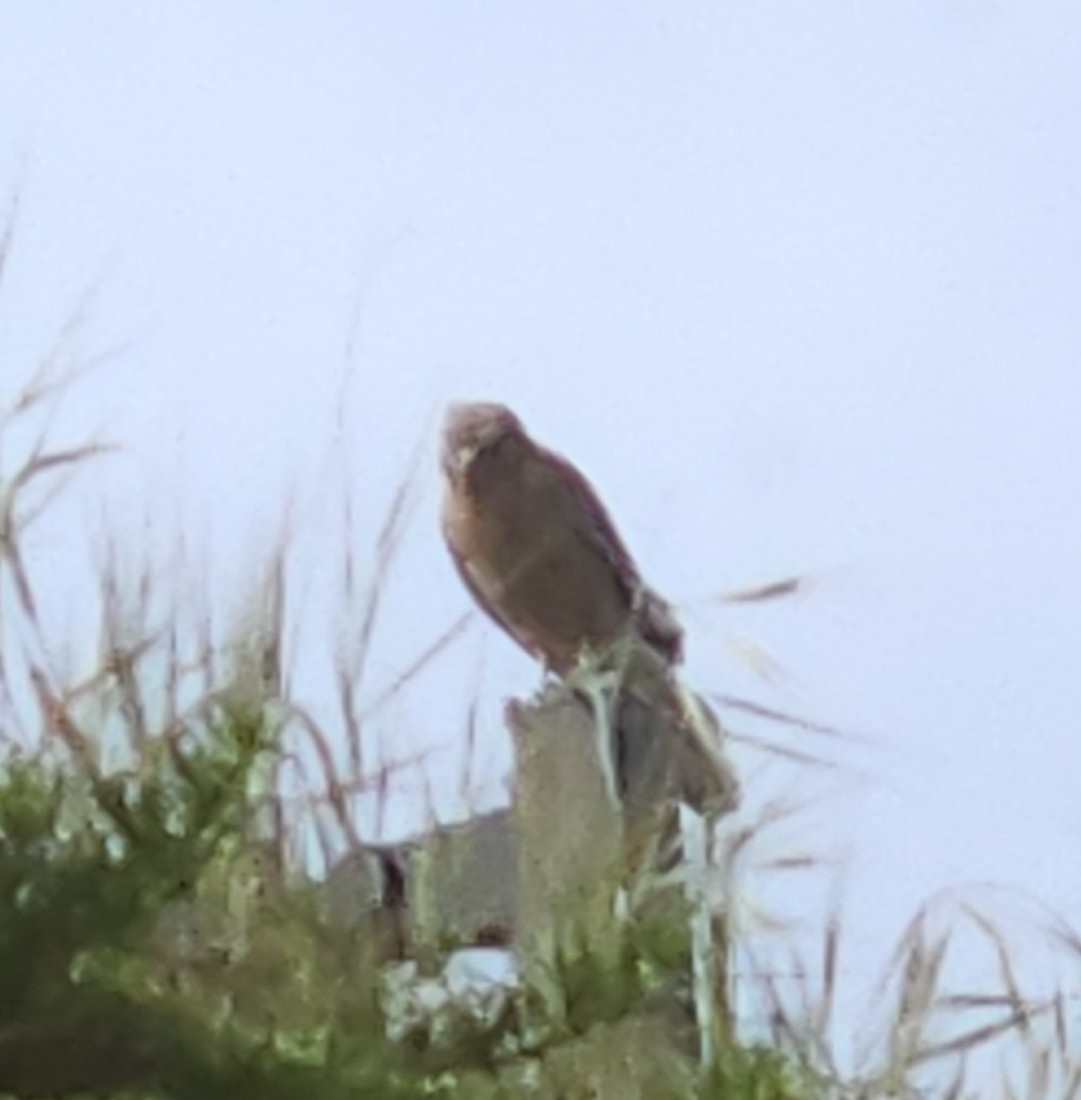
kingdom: Animalia
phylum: Chordata
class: Aves
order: Accipitriformes
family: Accipitridae
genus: Buteo
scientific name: Buteo lineatus
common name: Red-shouldered hawk
